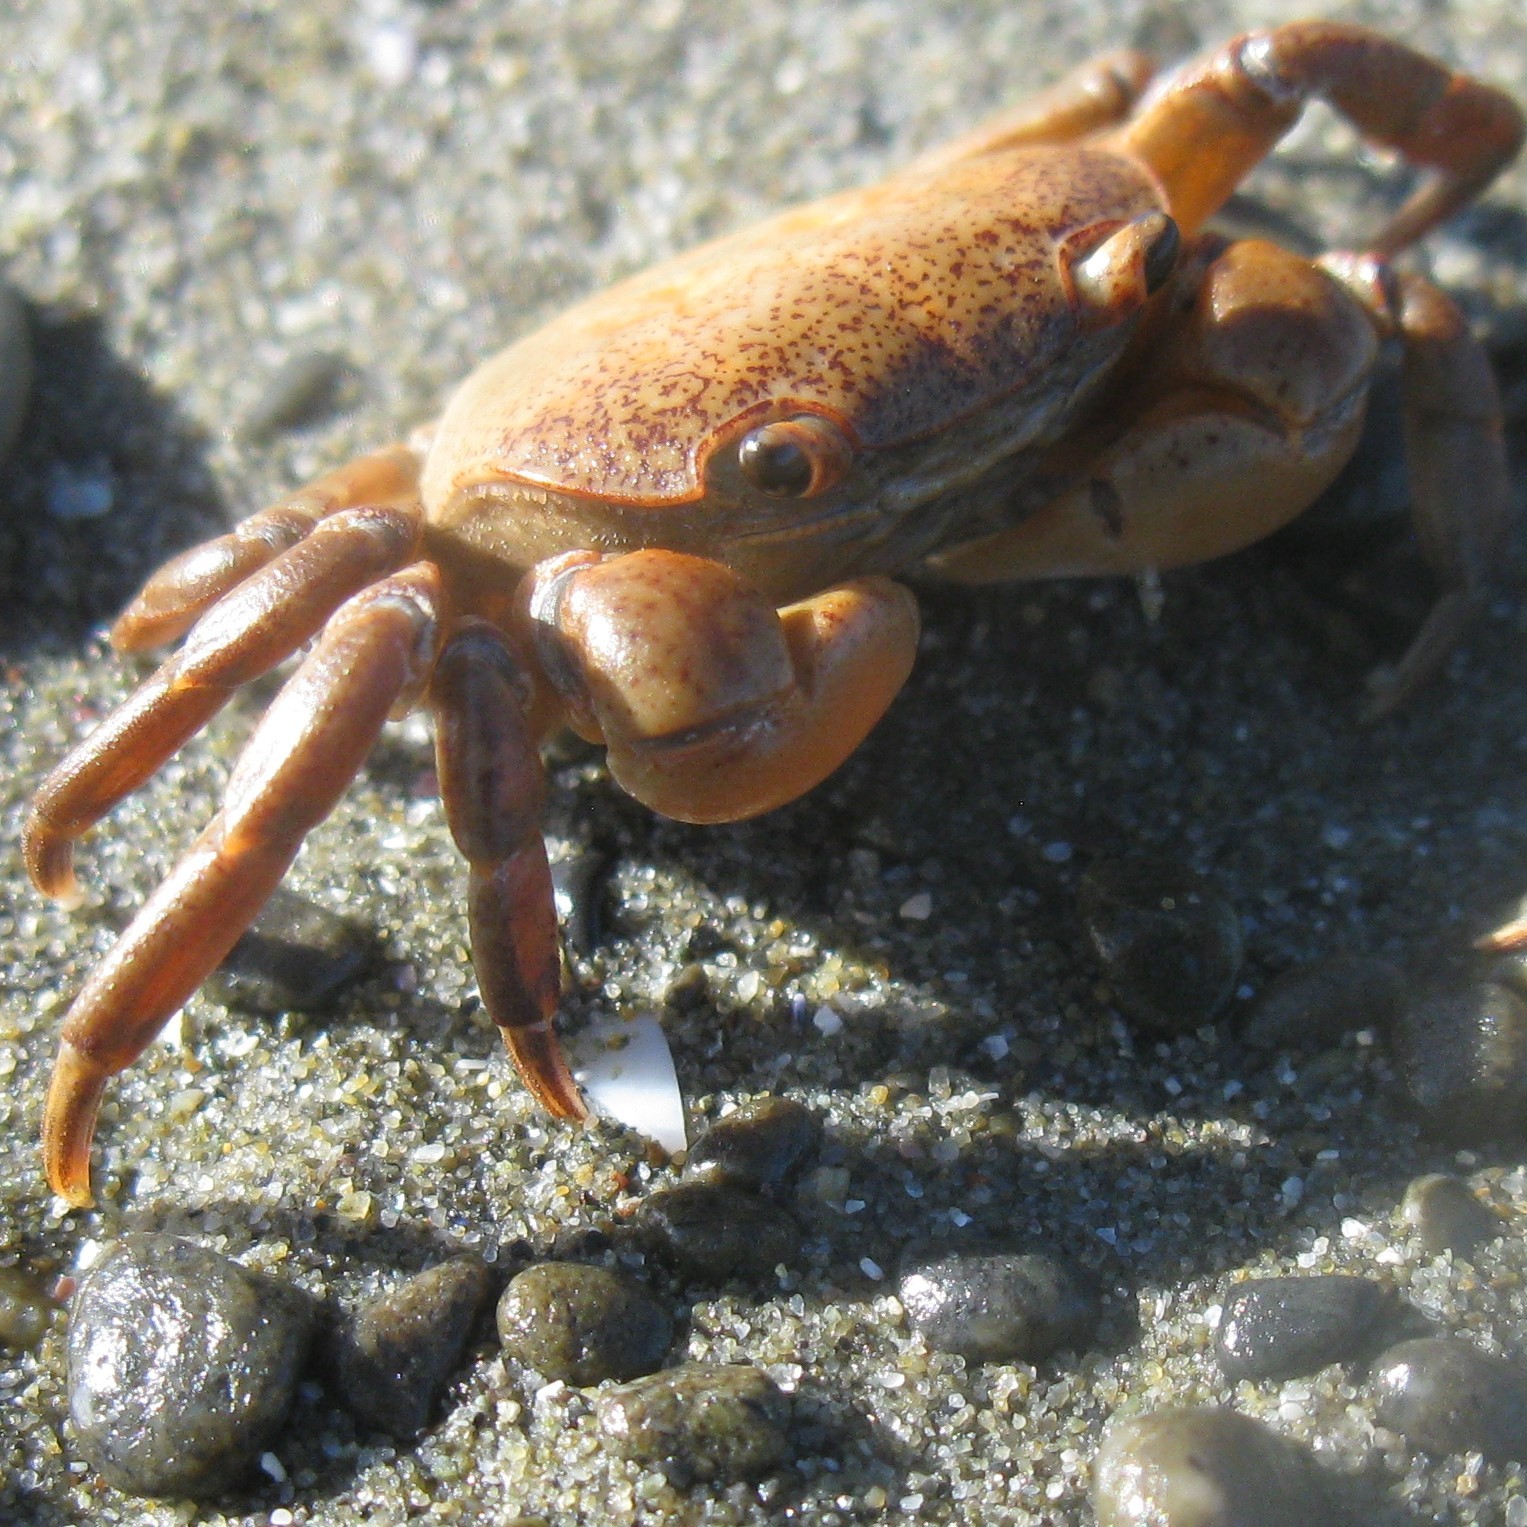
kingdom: Animalia
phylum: Arthropoda
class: Malacostraca
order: Decapoda
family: Varunidae
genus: Cyclograpsus
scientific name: Cyclograpsus lavauxi
